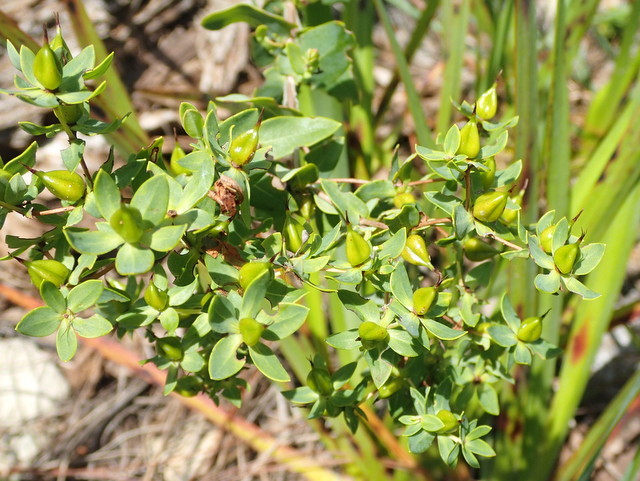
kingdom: Plantae
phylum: Tracheophyta
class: Magnoliopsida
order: Malpighiales
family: Hypericaceae
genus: Hypericum
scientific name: Hypericum myrtifolium
